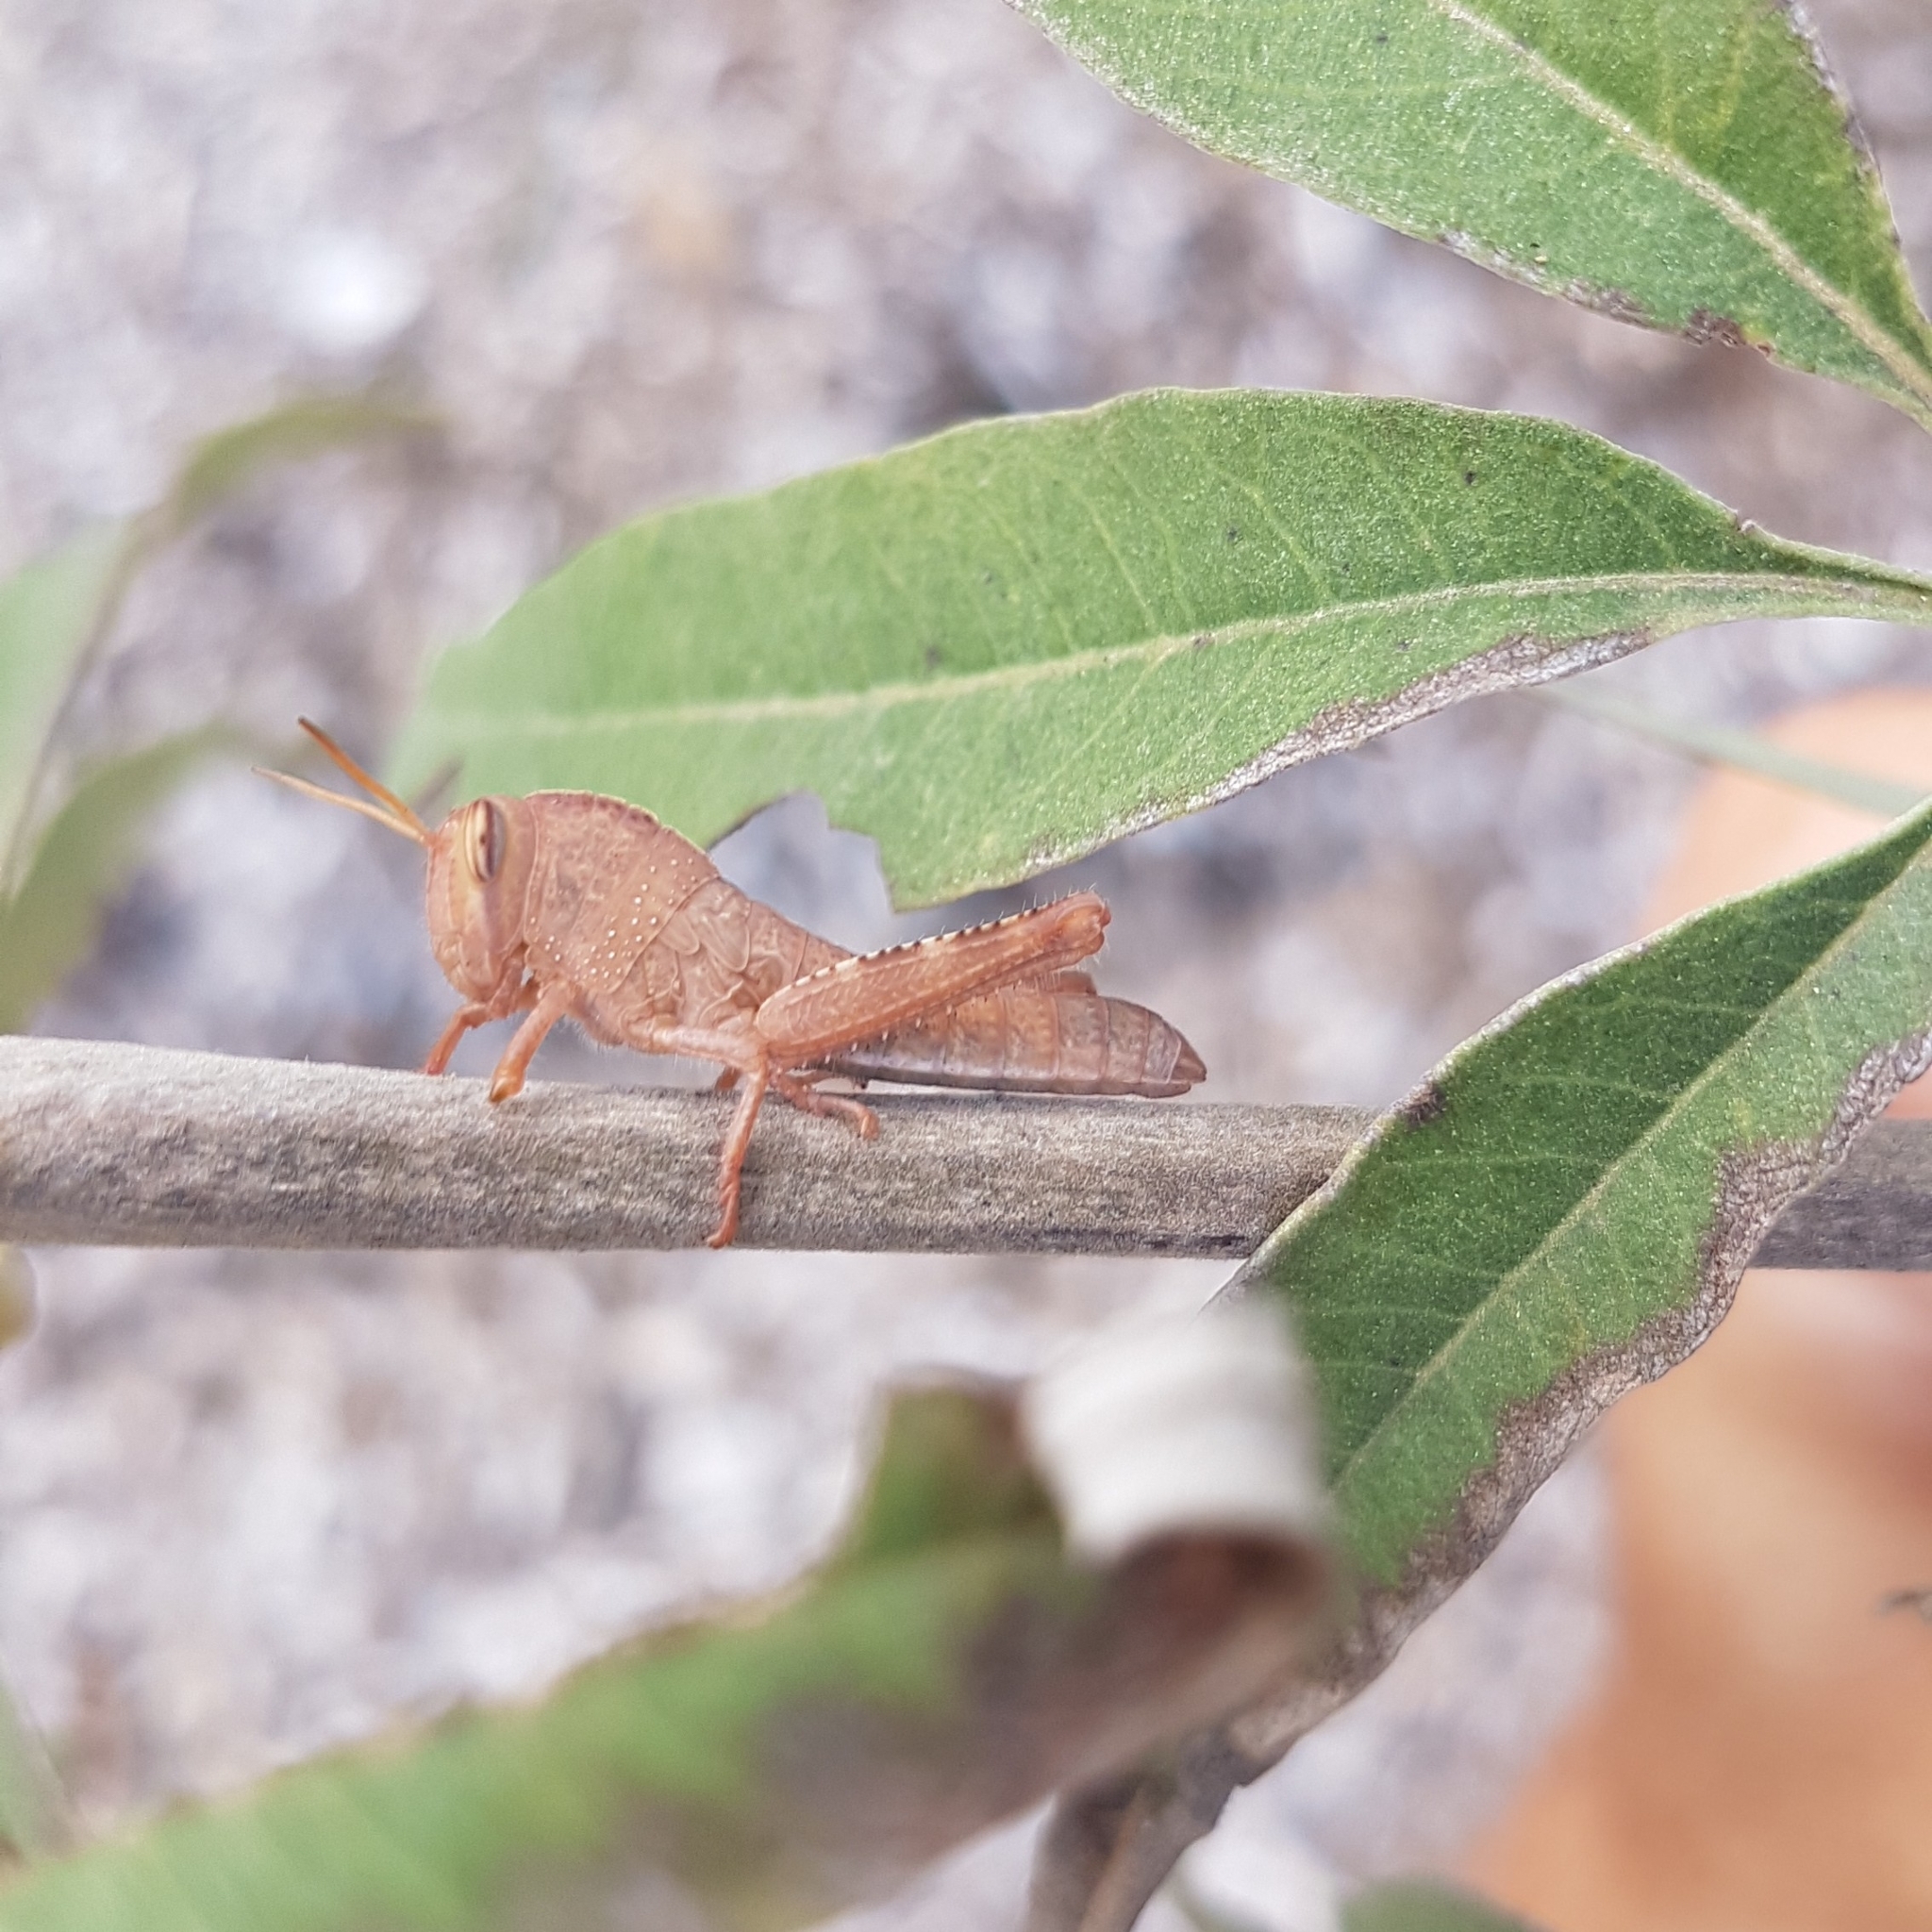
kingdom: Animalia
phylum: Arthropoda
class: Insecta
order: Orthoptera
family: Acrididae
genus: Anacridium
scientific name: Anacridium aegyptium
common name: Egyptian grasshopper
